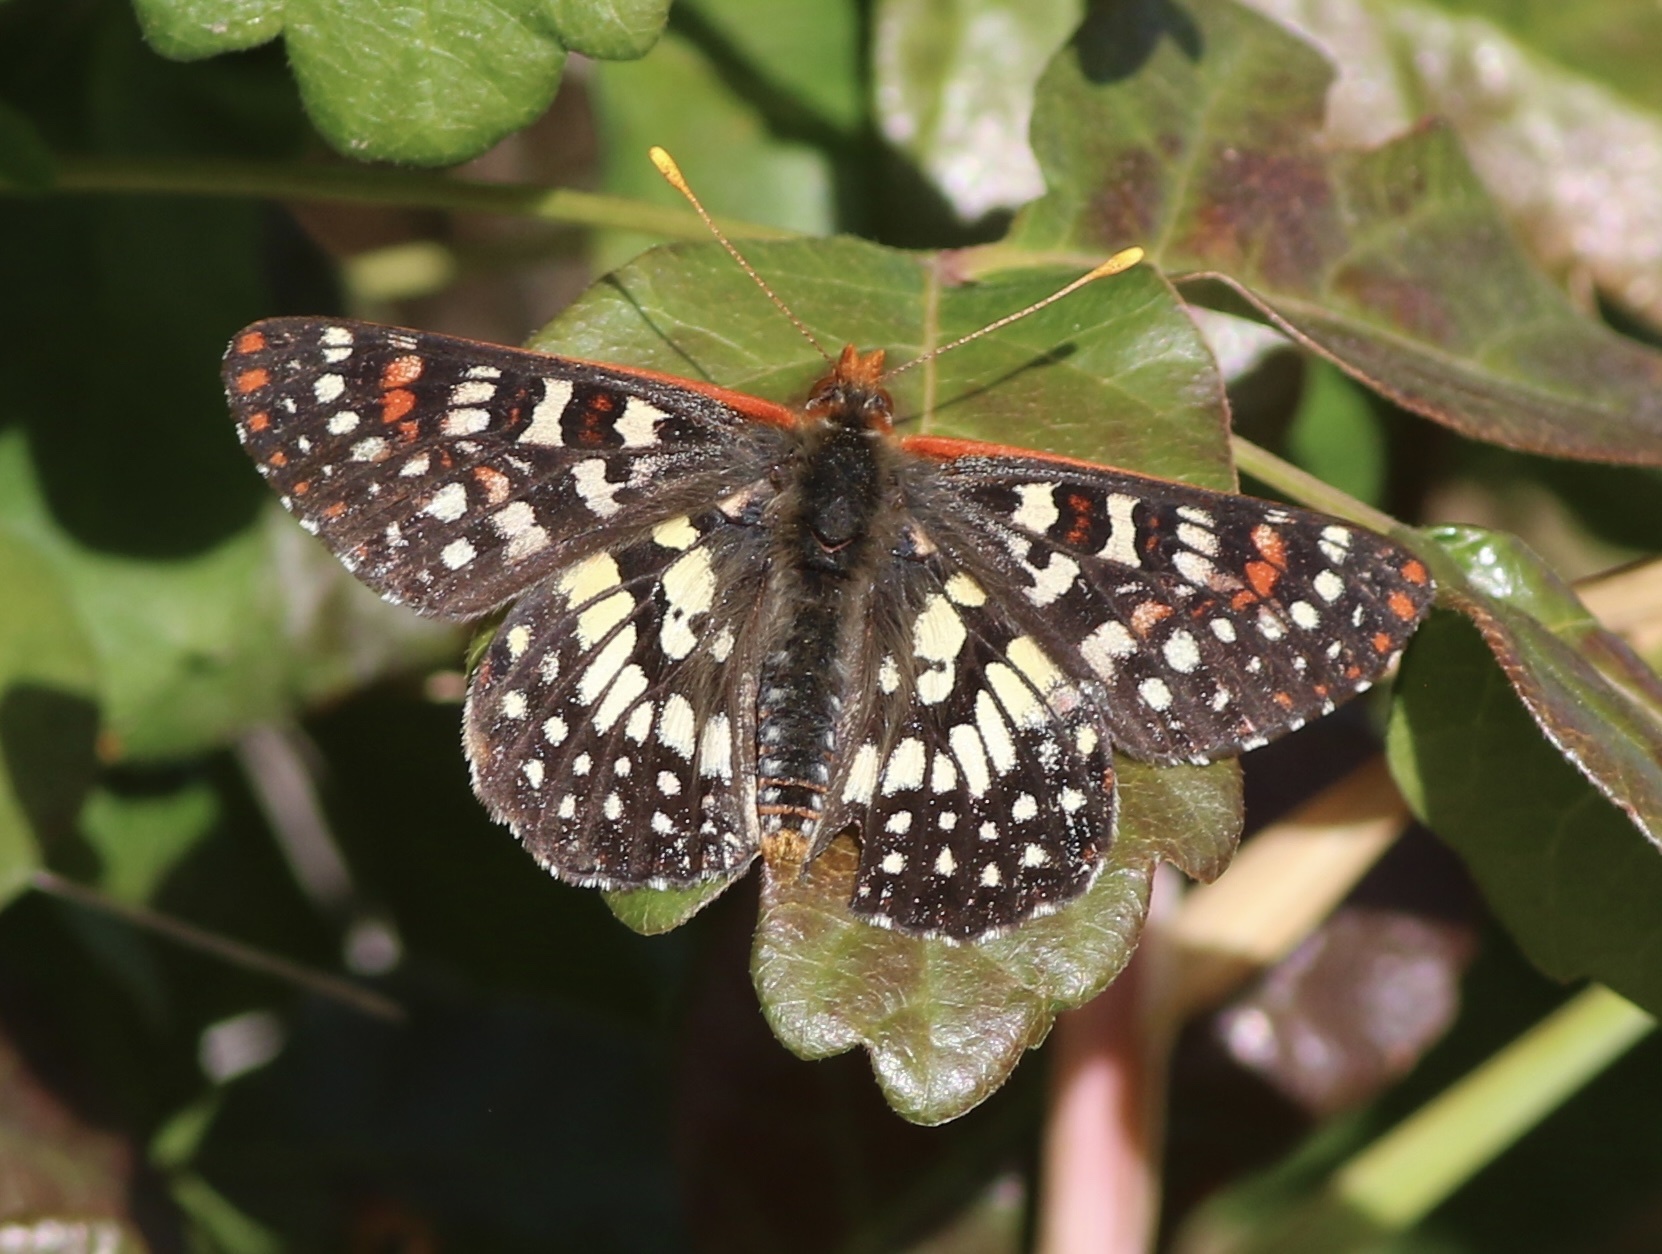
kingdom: Animalia
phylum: Arthropoda
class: Insecta
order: Lepidoptera
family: Nymphalidae
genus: Occidryas
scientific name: Occidryas chalcedona
